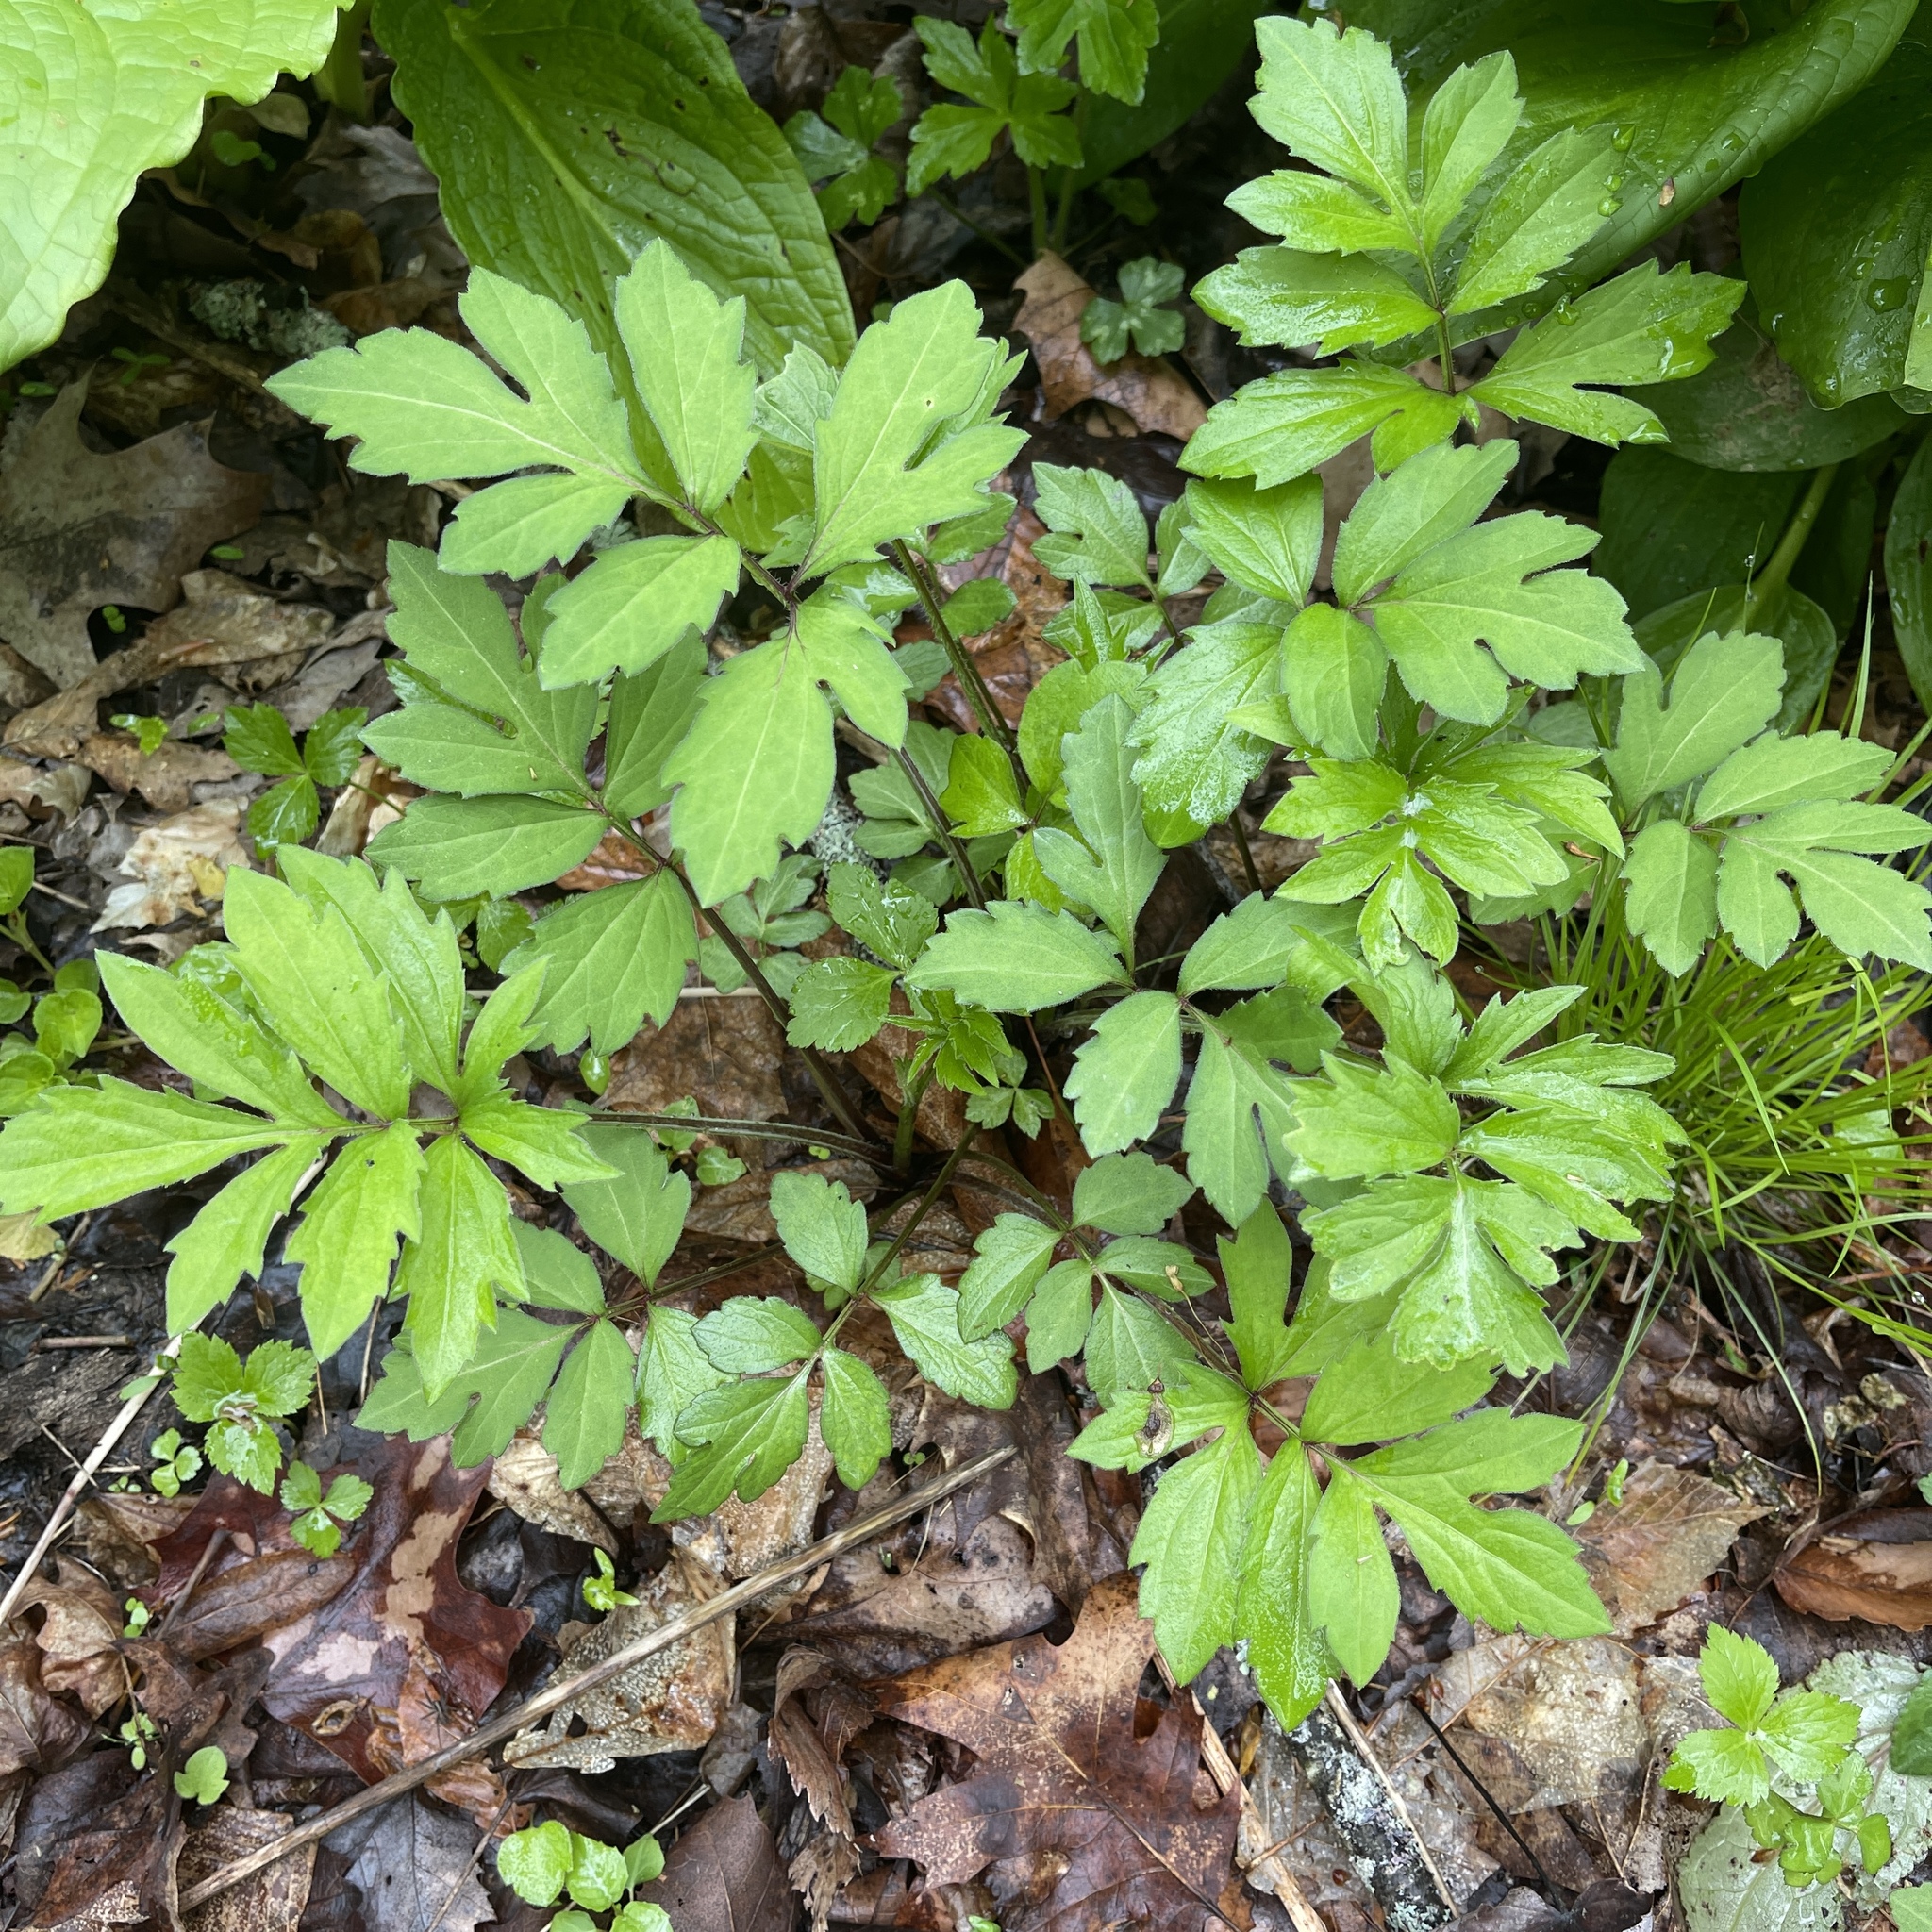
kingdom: Plantae
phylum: Tracheophyta
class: Magnoliopsida
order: Asterales
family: Asteraceae
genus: Rudbeckia
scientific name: Rudbeckia laciniata
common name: Coneflower
